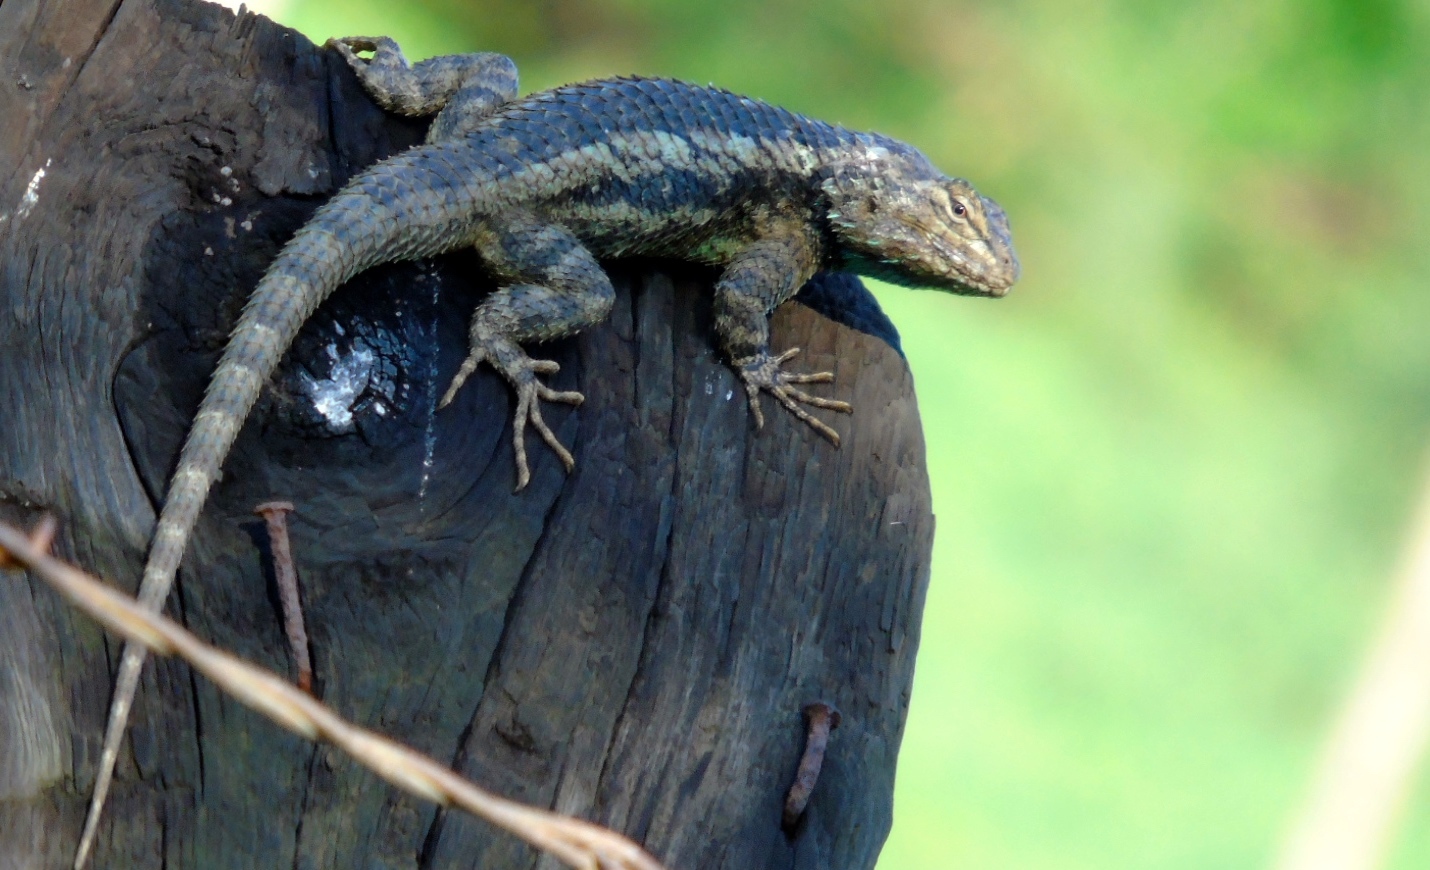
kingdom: Animalia
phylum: Chordata
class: Squamata
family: Phrynosomatidae
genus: Sceloporus
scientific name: Sceloporus clarkii
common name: Clark's spiny lizard
